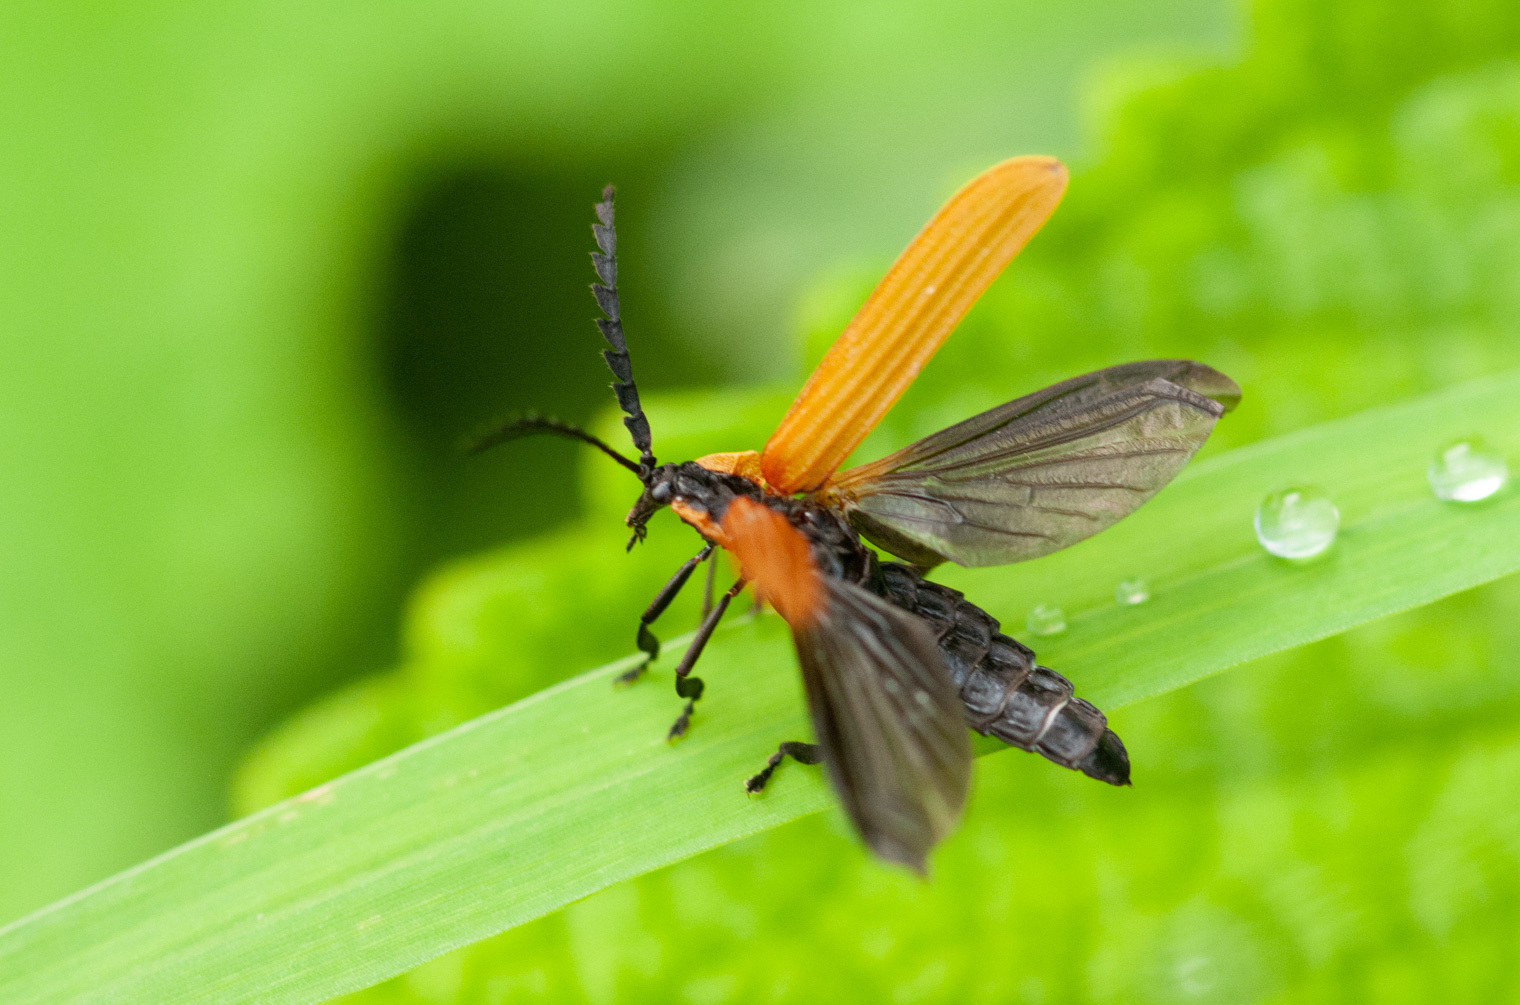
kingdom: Animalia
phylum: Arthropoda
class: Insecta
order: Coleoptera
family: Lycidae
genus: Porrostoma
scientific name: Porrostoma
